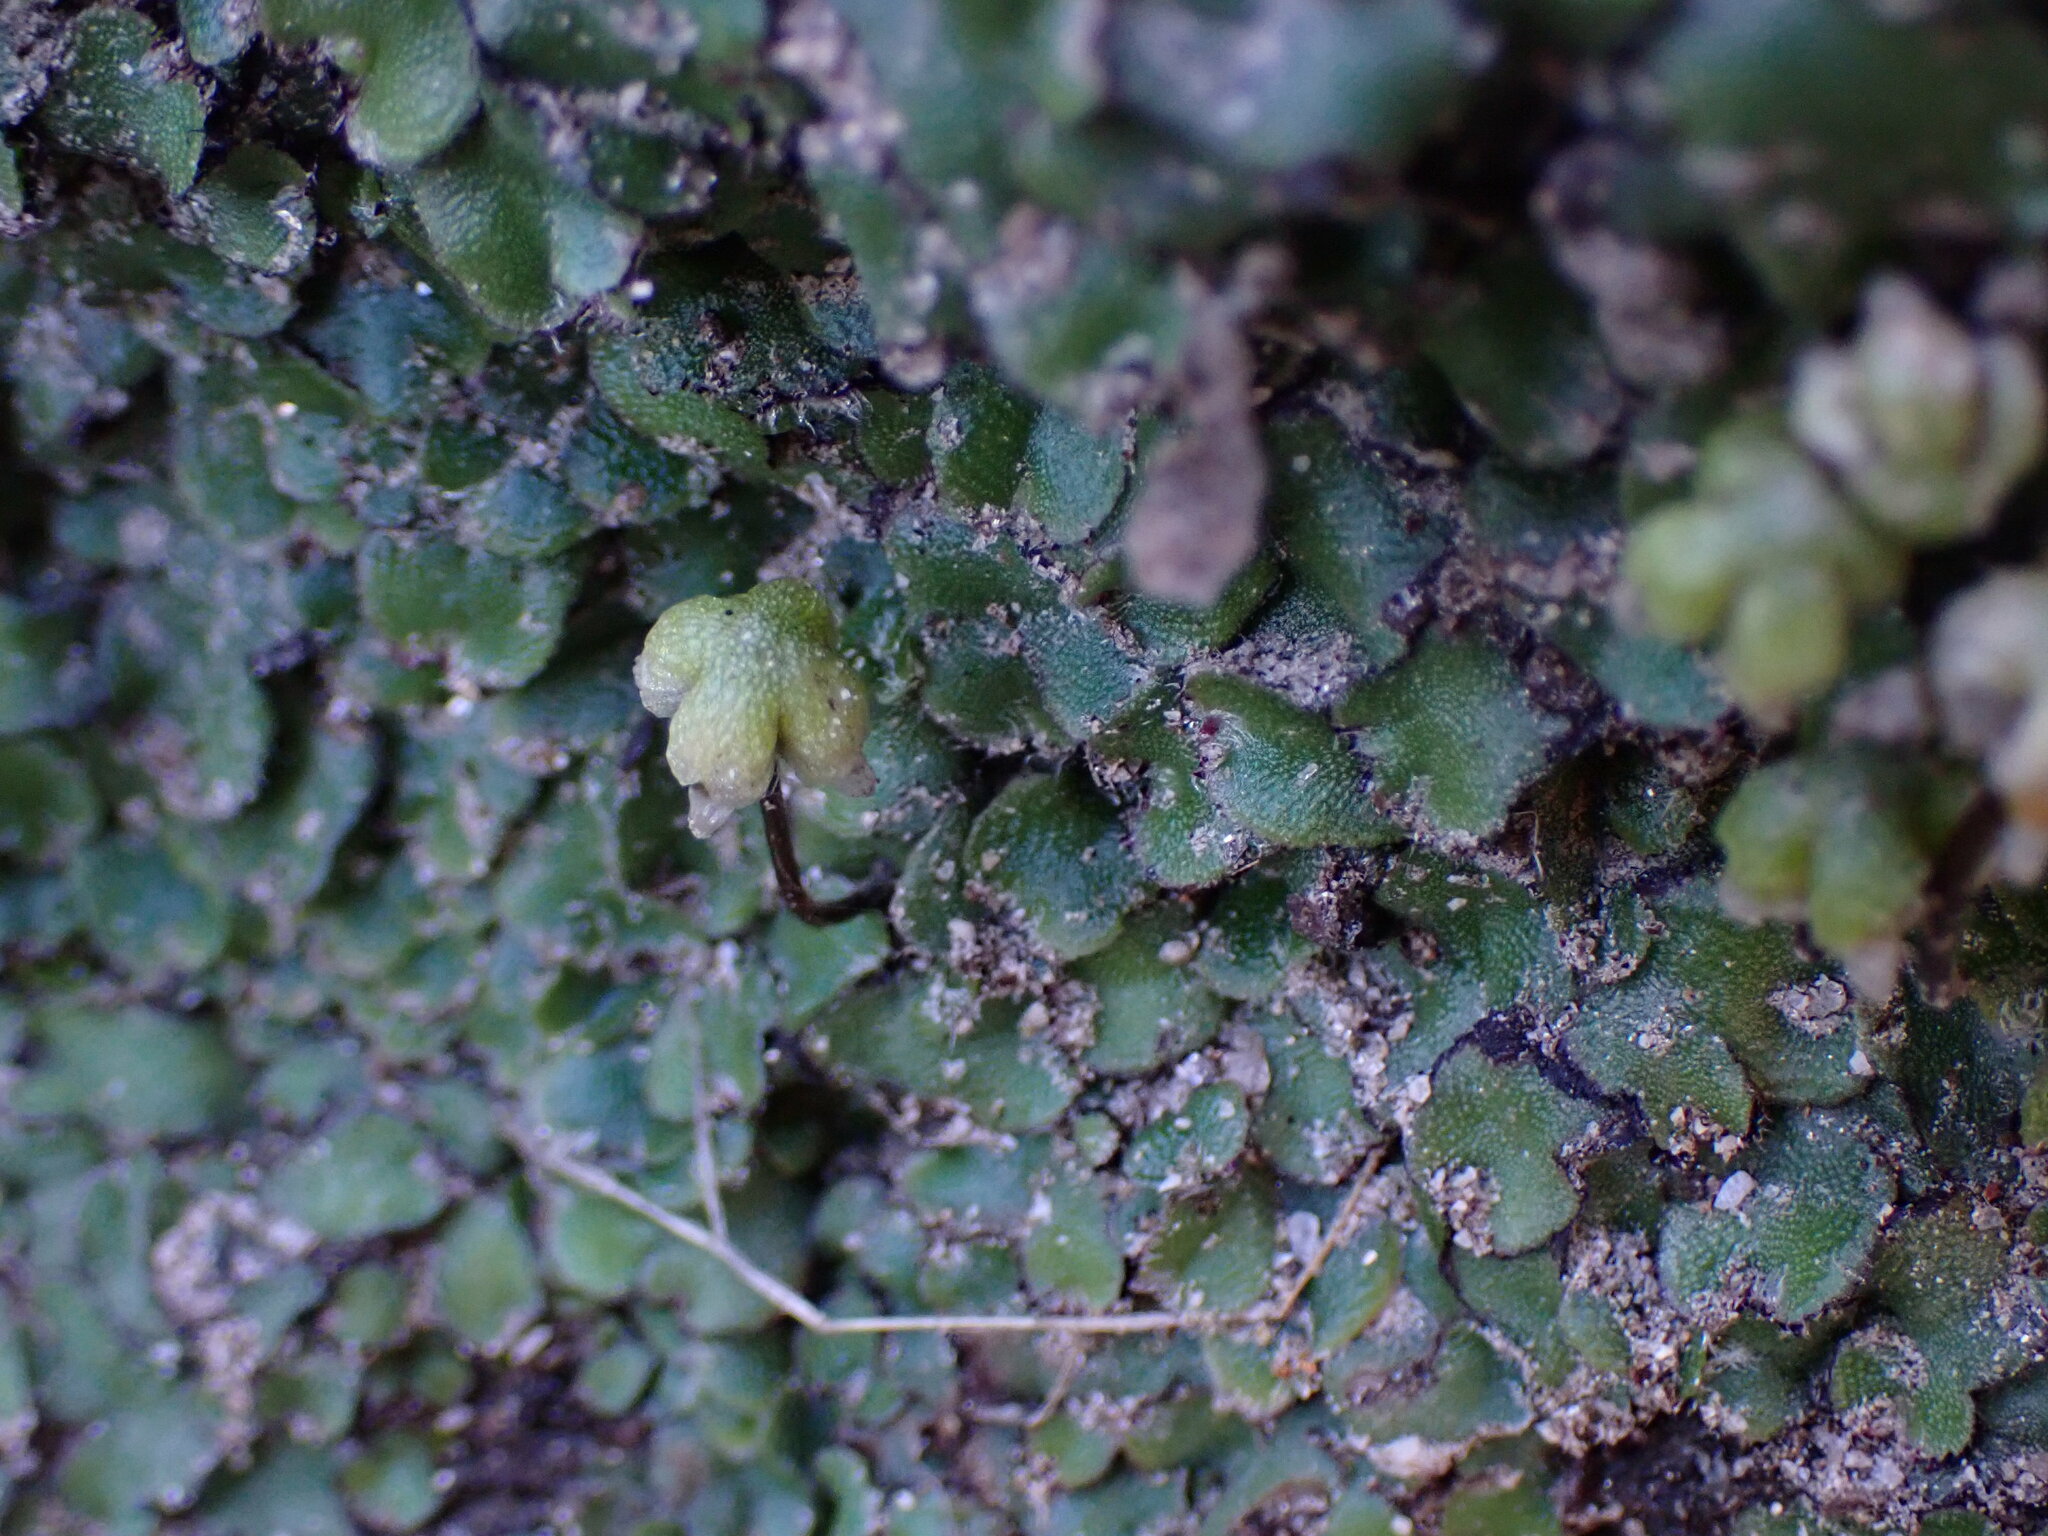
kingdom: Plantae
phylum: Marchantiophyta
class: Marchantiopsida
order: Marchantiales
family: Aytoniaceae
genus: Asterella
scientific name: Asterella californica
